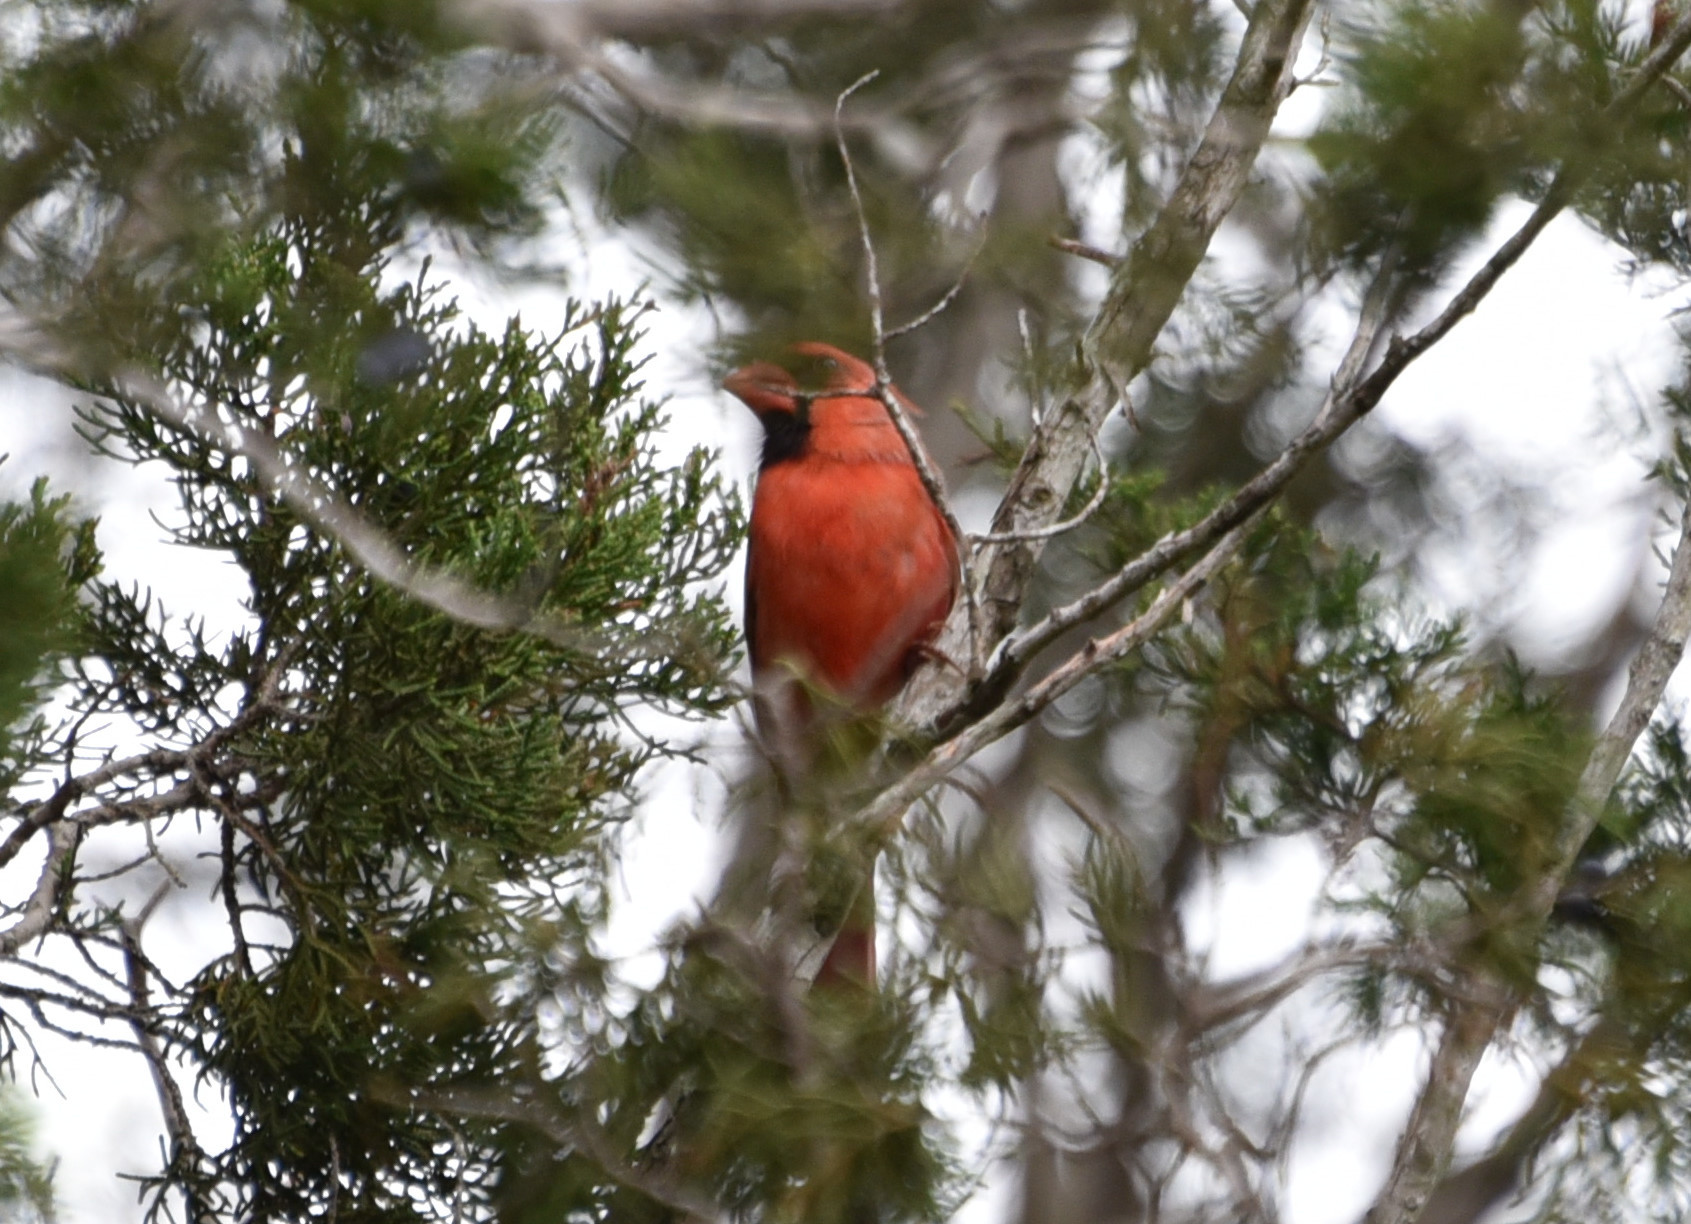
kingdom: Animalia
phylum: Chordata
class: Aves
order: Passeriformes
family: Cardinalidae
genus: Cardinalis
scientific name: Cardinalis cardinalis
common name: Northern cardinal
